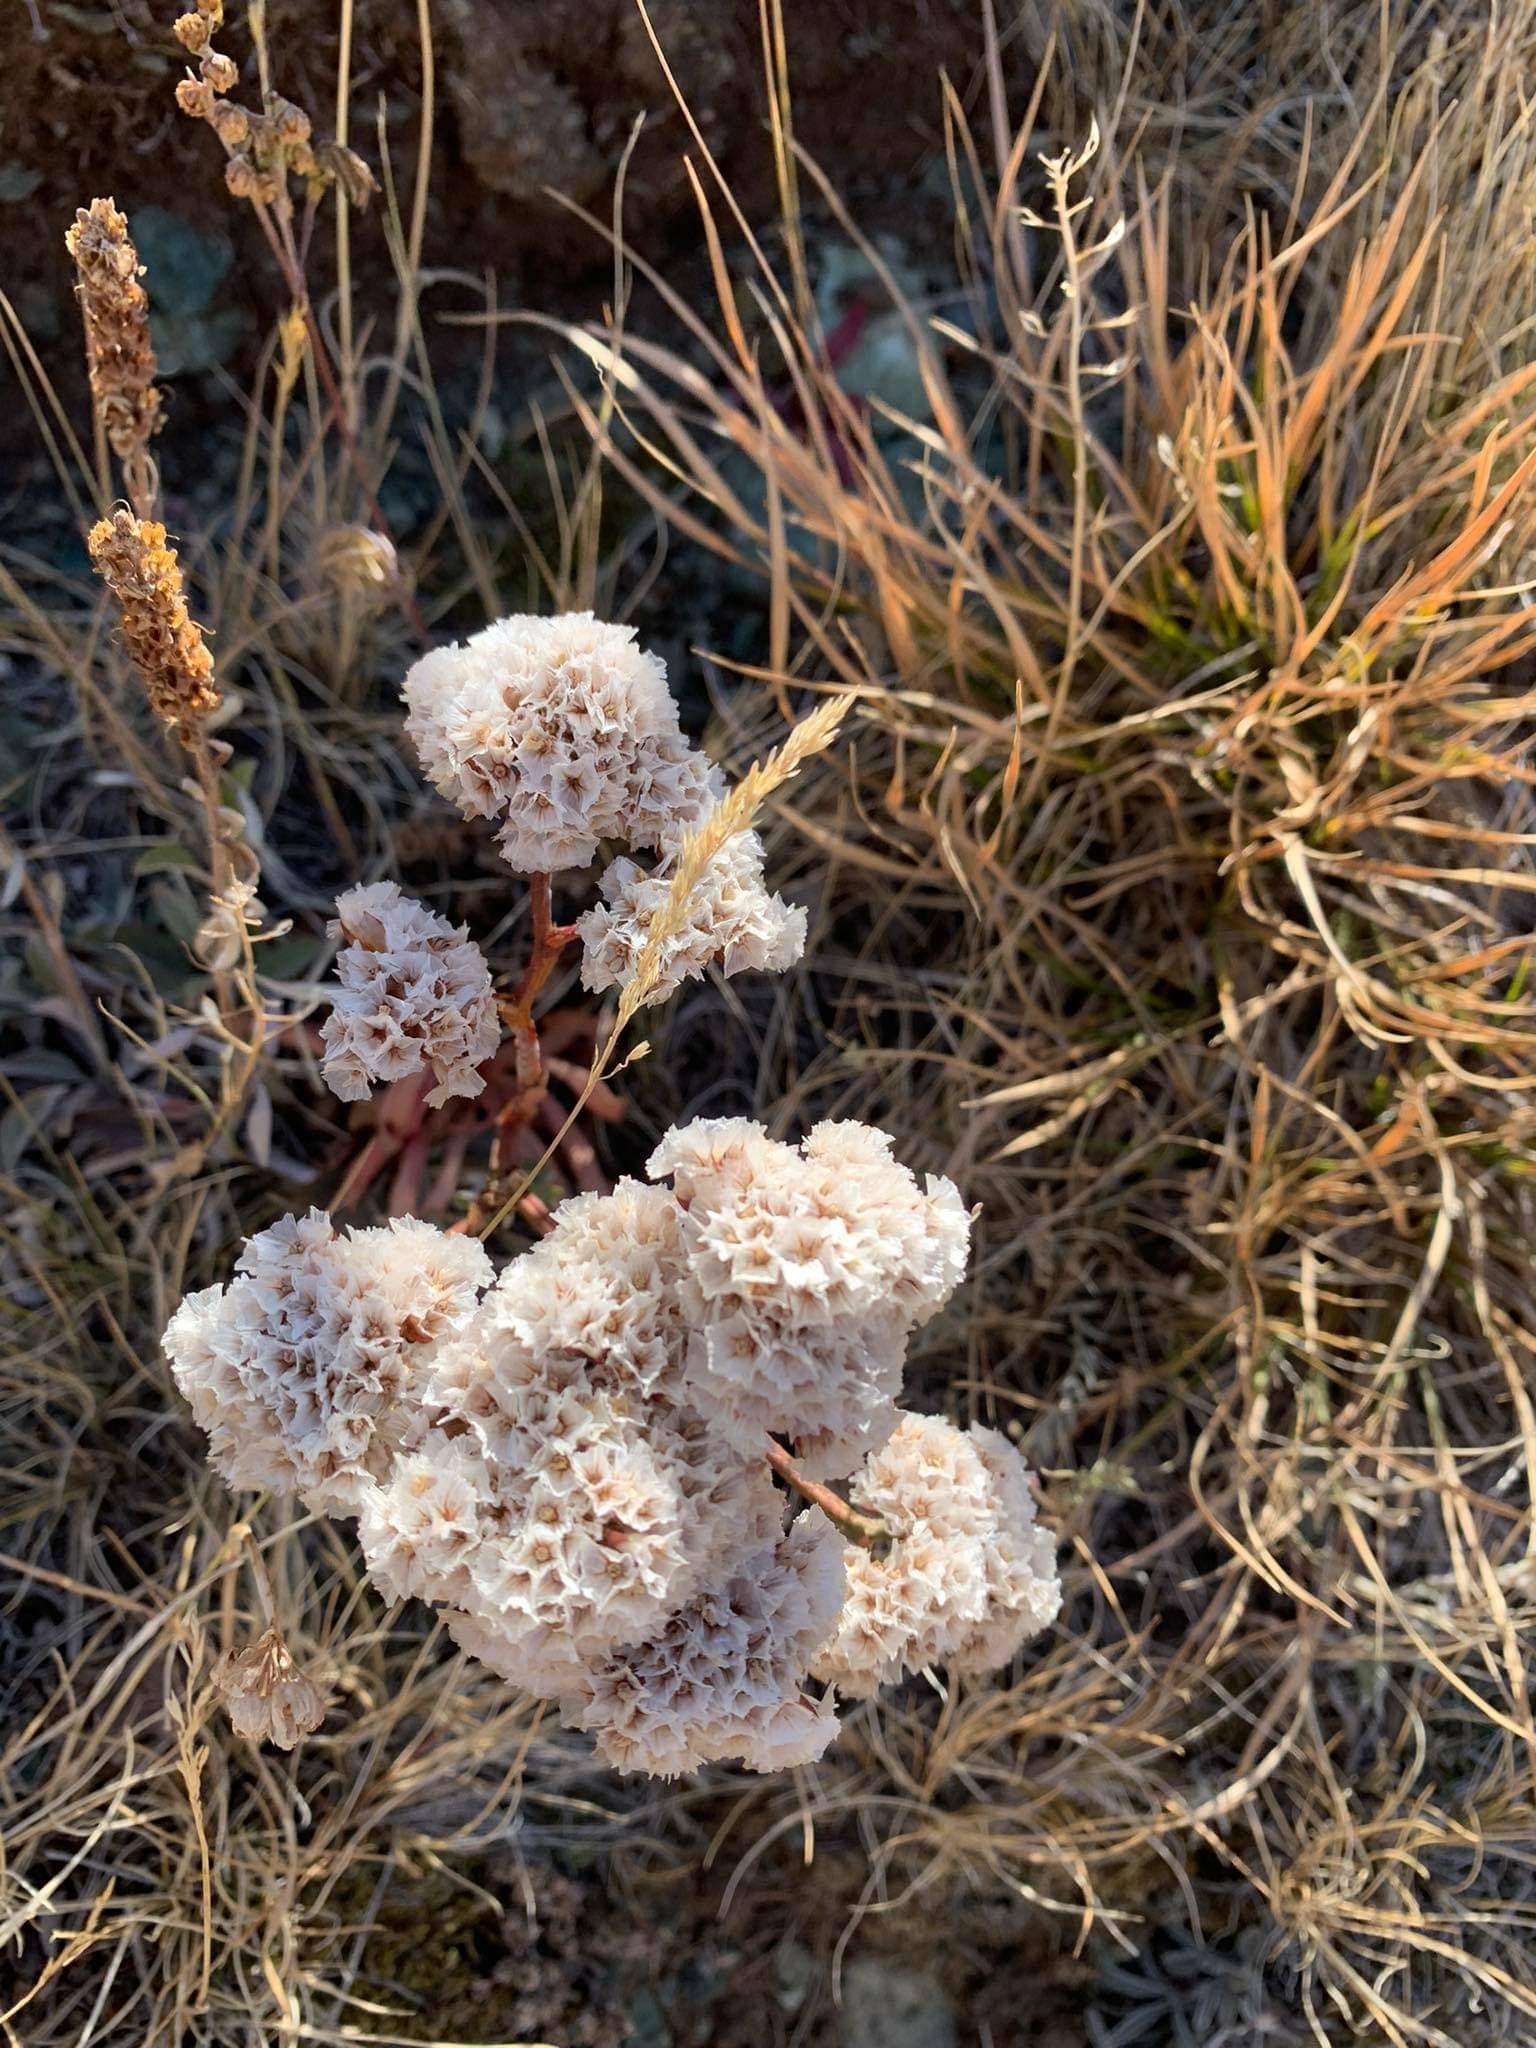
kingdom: Plantae
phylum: Tracheophyta
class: Magnoliopsida
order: Caryophyllales
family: Plumbaginaceae
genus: Goniolimon
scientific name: Goniolimon speciosum
